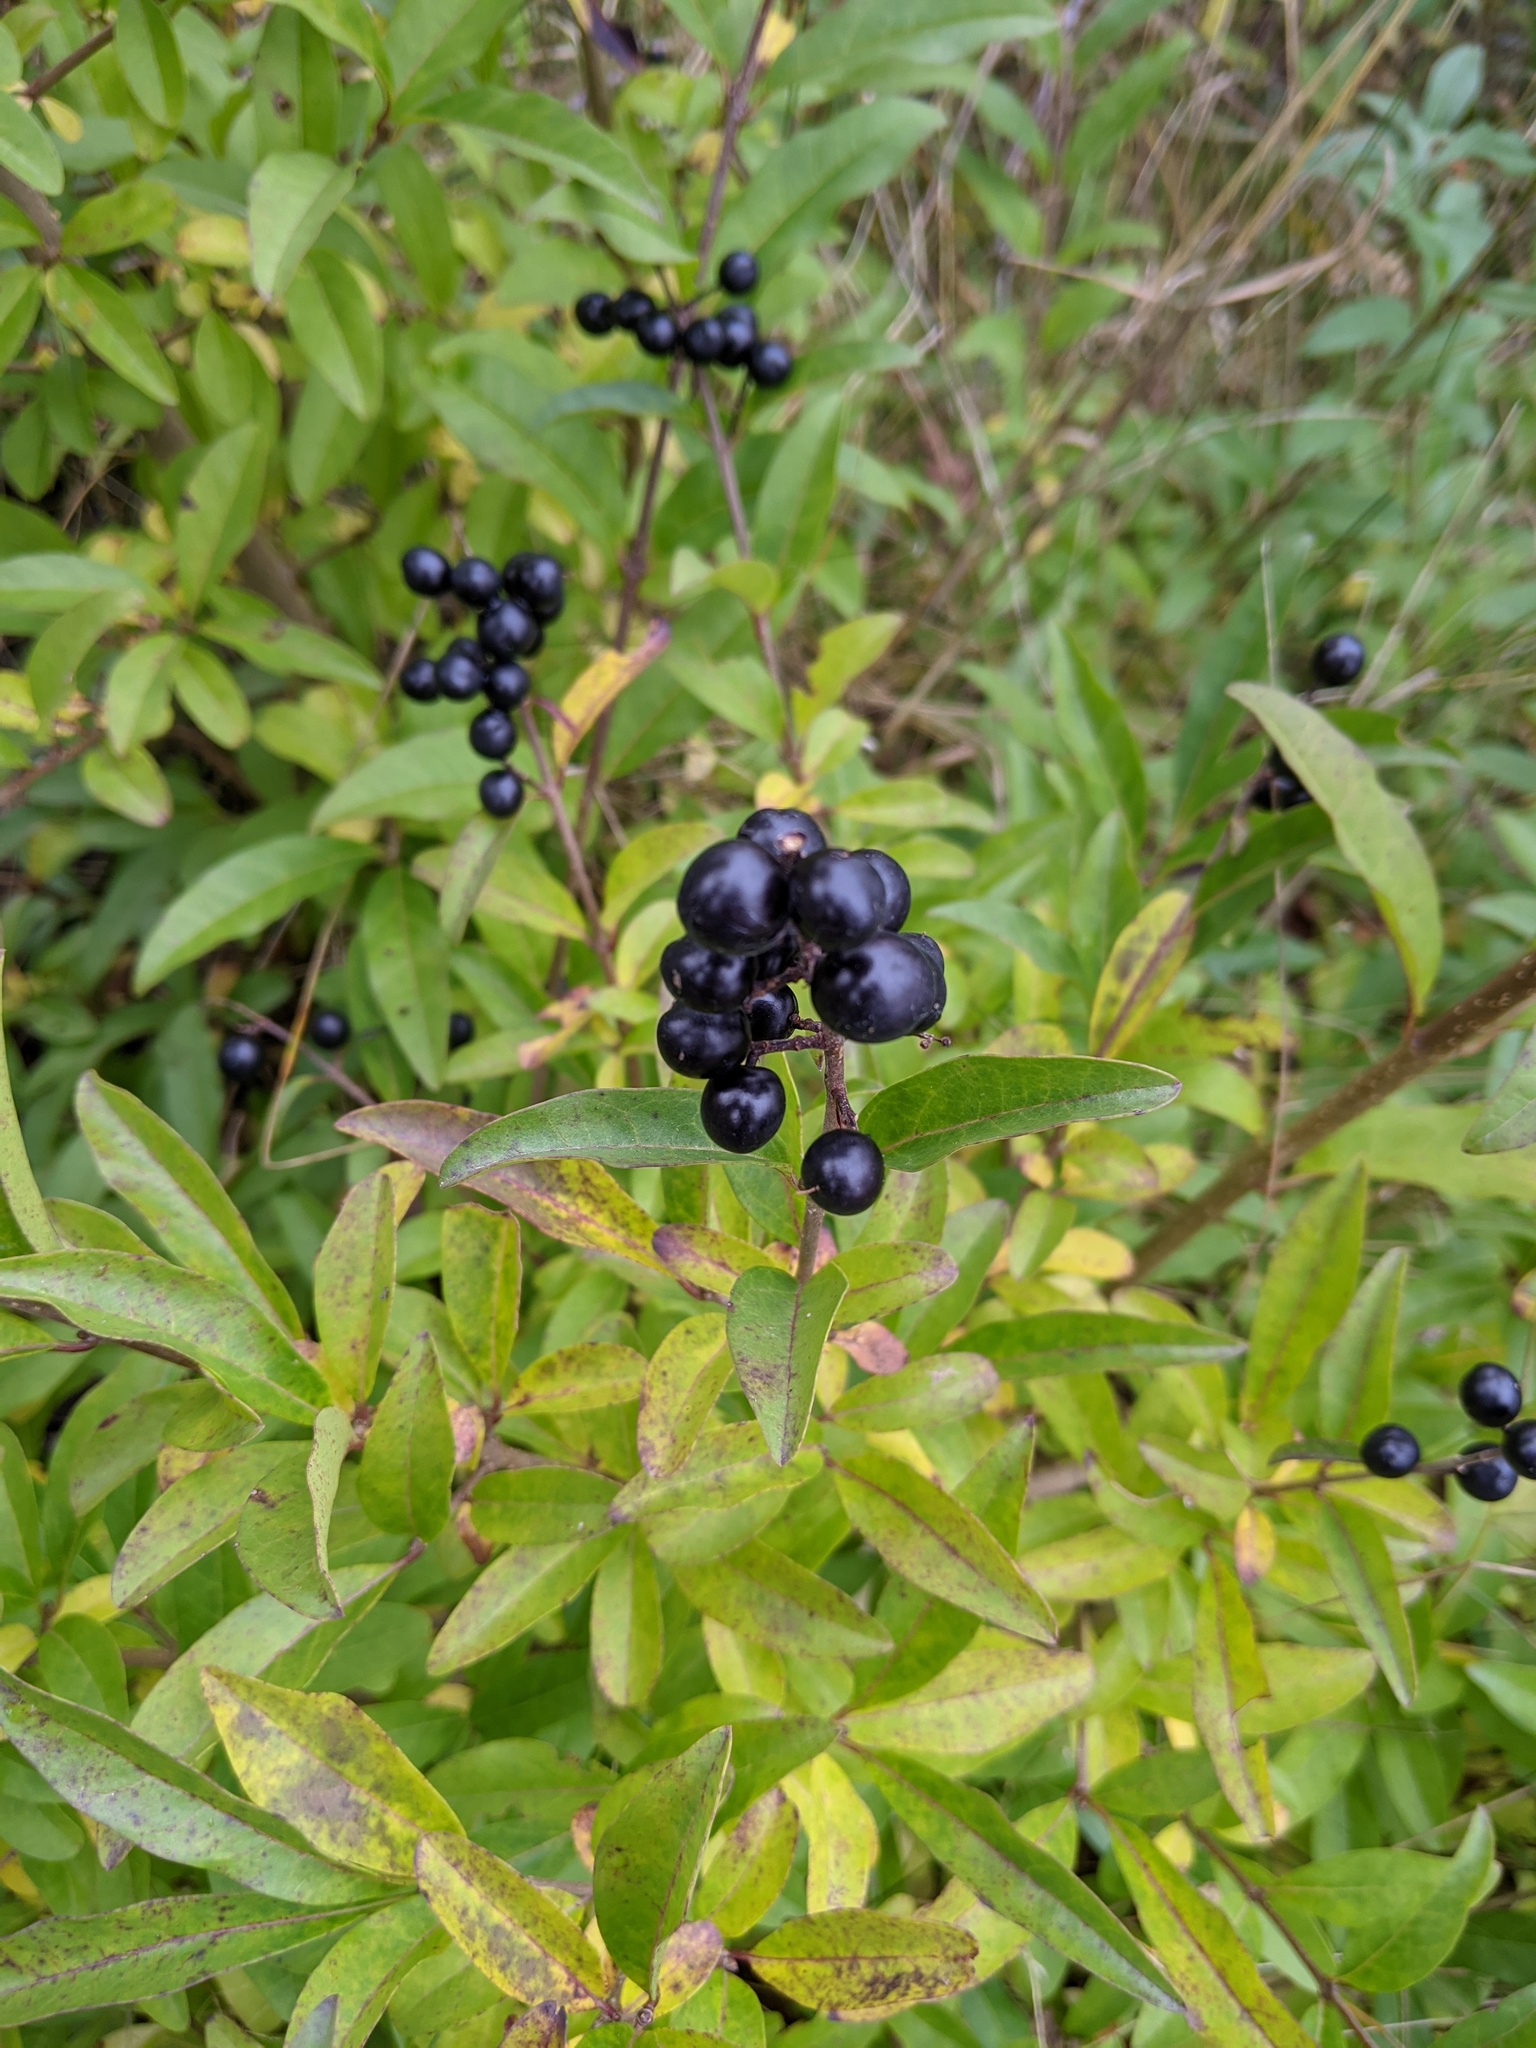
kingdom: Plantae
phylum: Tracheophyta
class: Magnoliopsida
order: Lamiales
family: Oleaceae
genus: Ligustrum
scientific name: Ligustrum vulgare
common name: Wild privet
